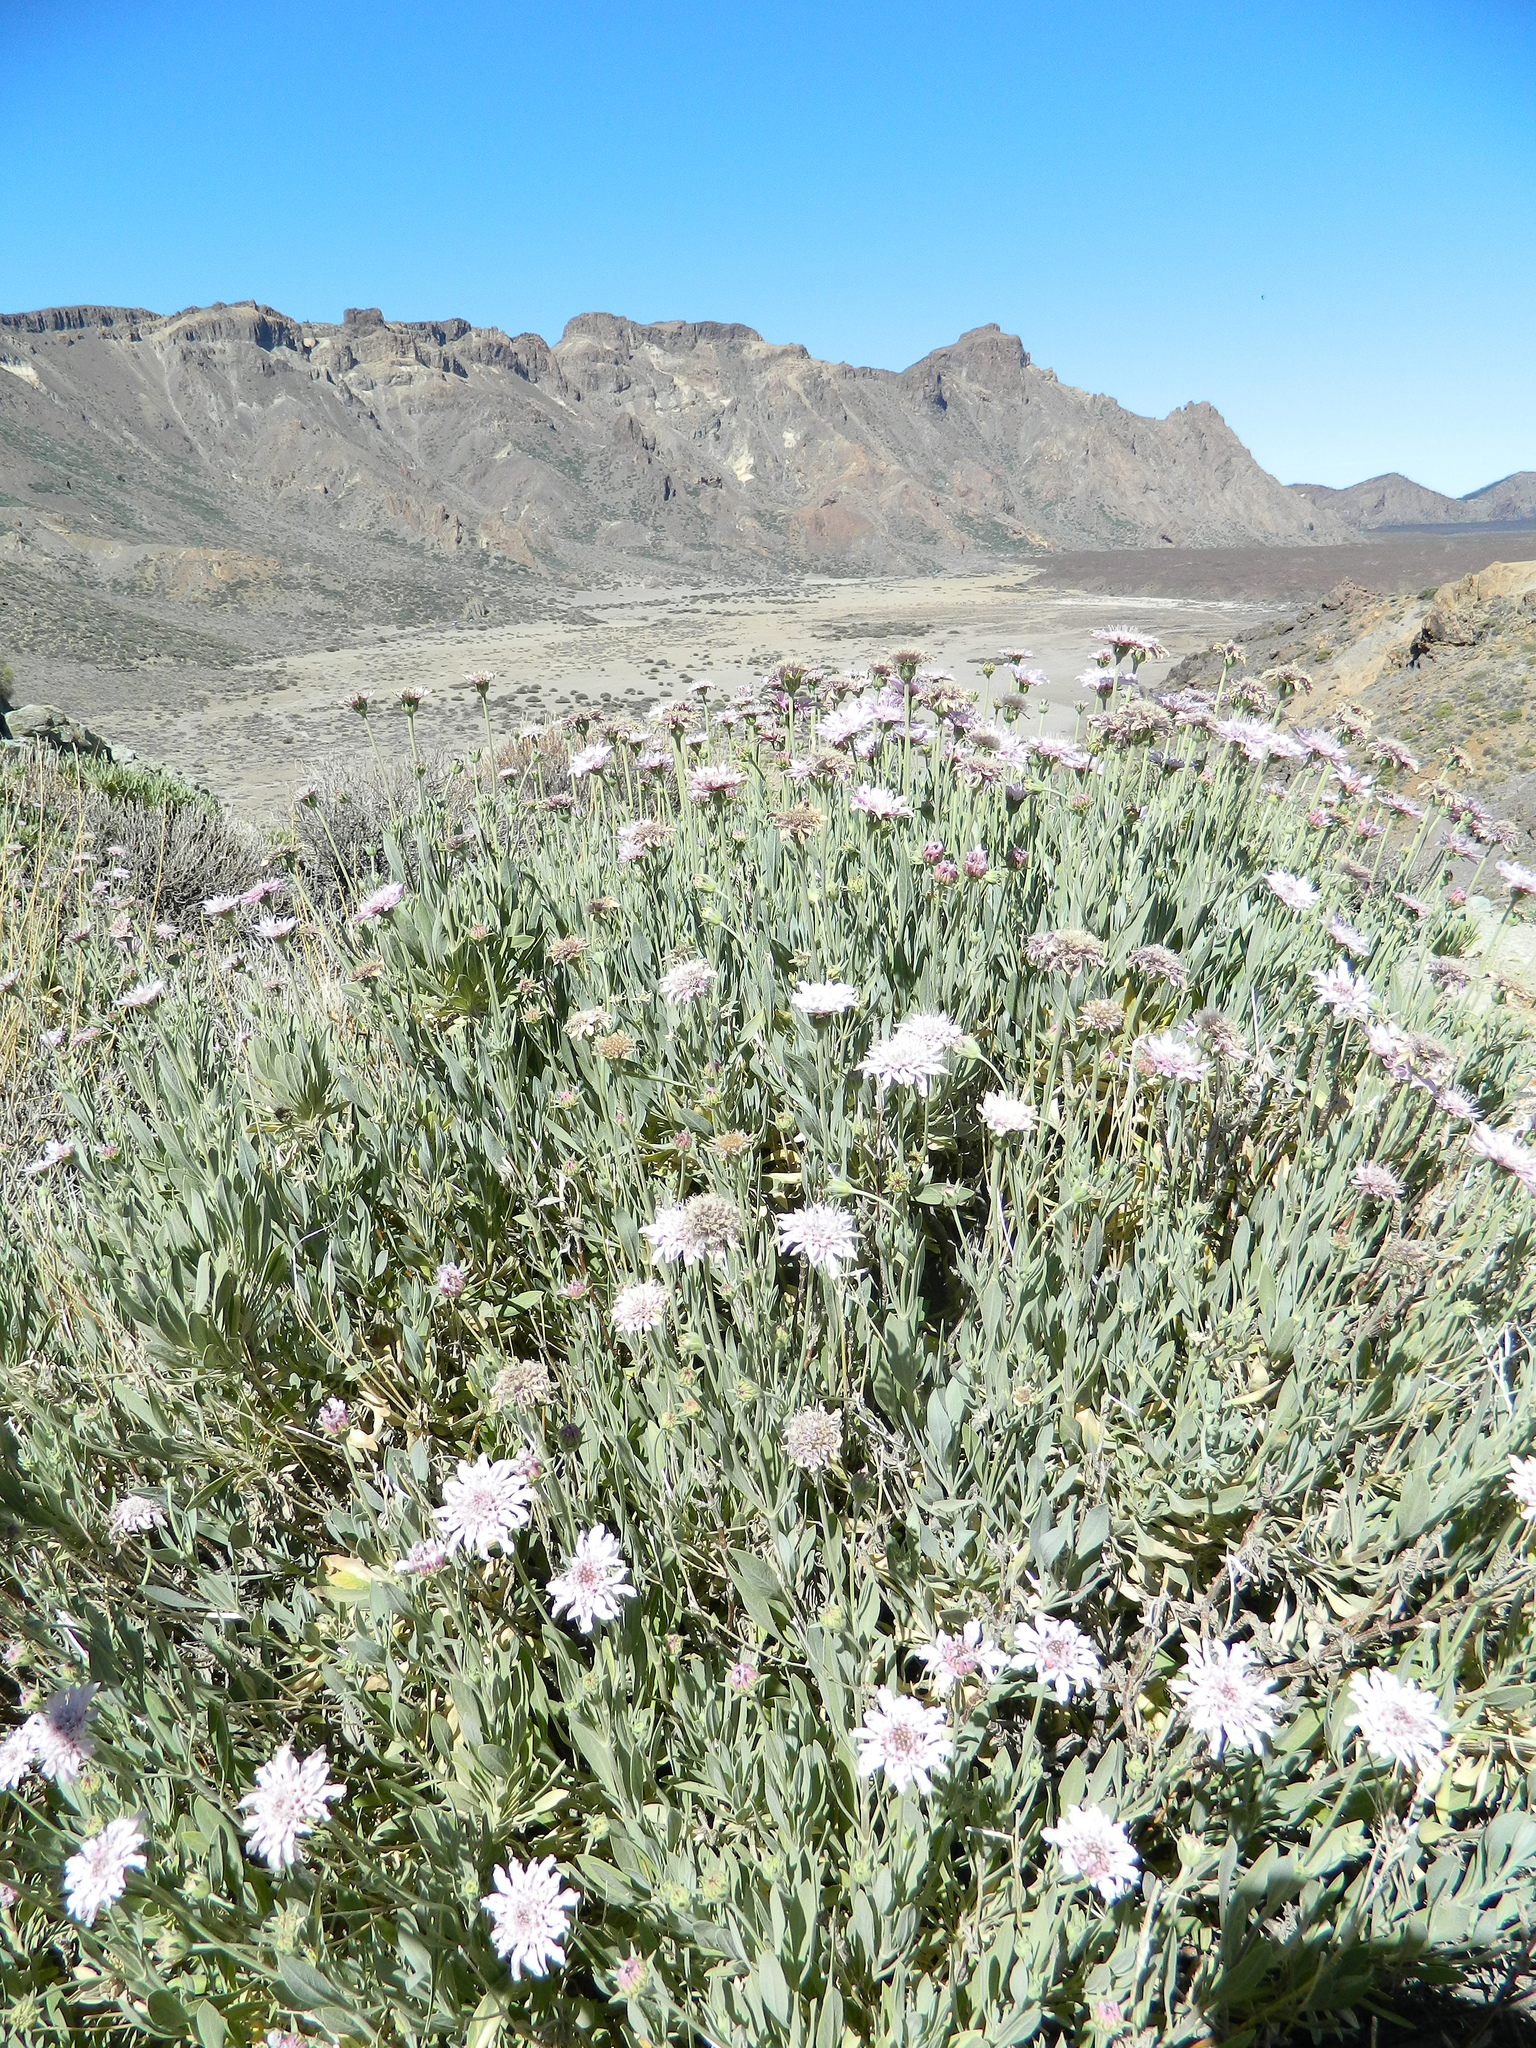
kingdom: Plantae
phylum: Tracheophyta
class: Magnoliopsida
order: Dipsacales
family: Caprifoliaceae
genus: Pterocephalus
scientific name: Pterocephalus lasiospermus
